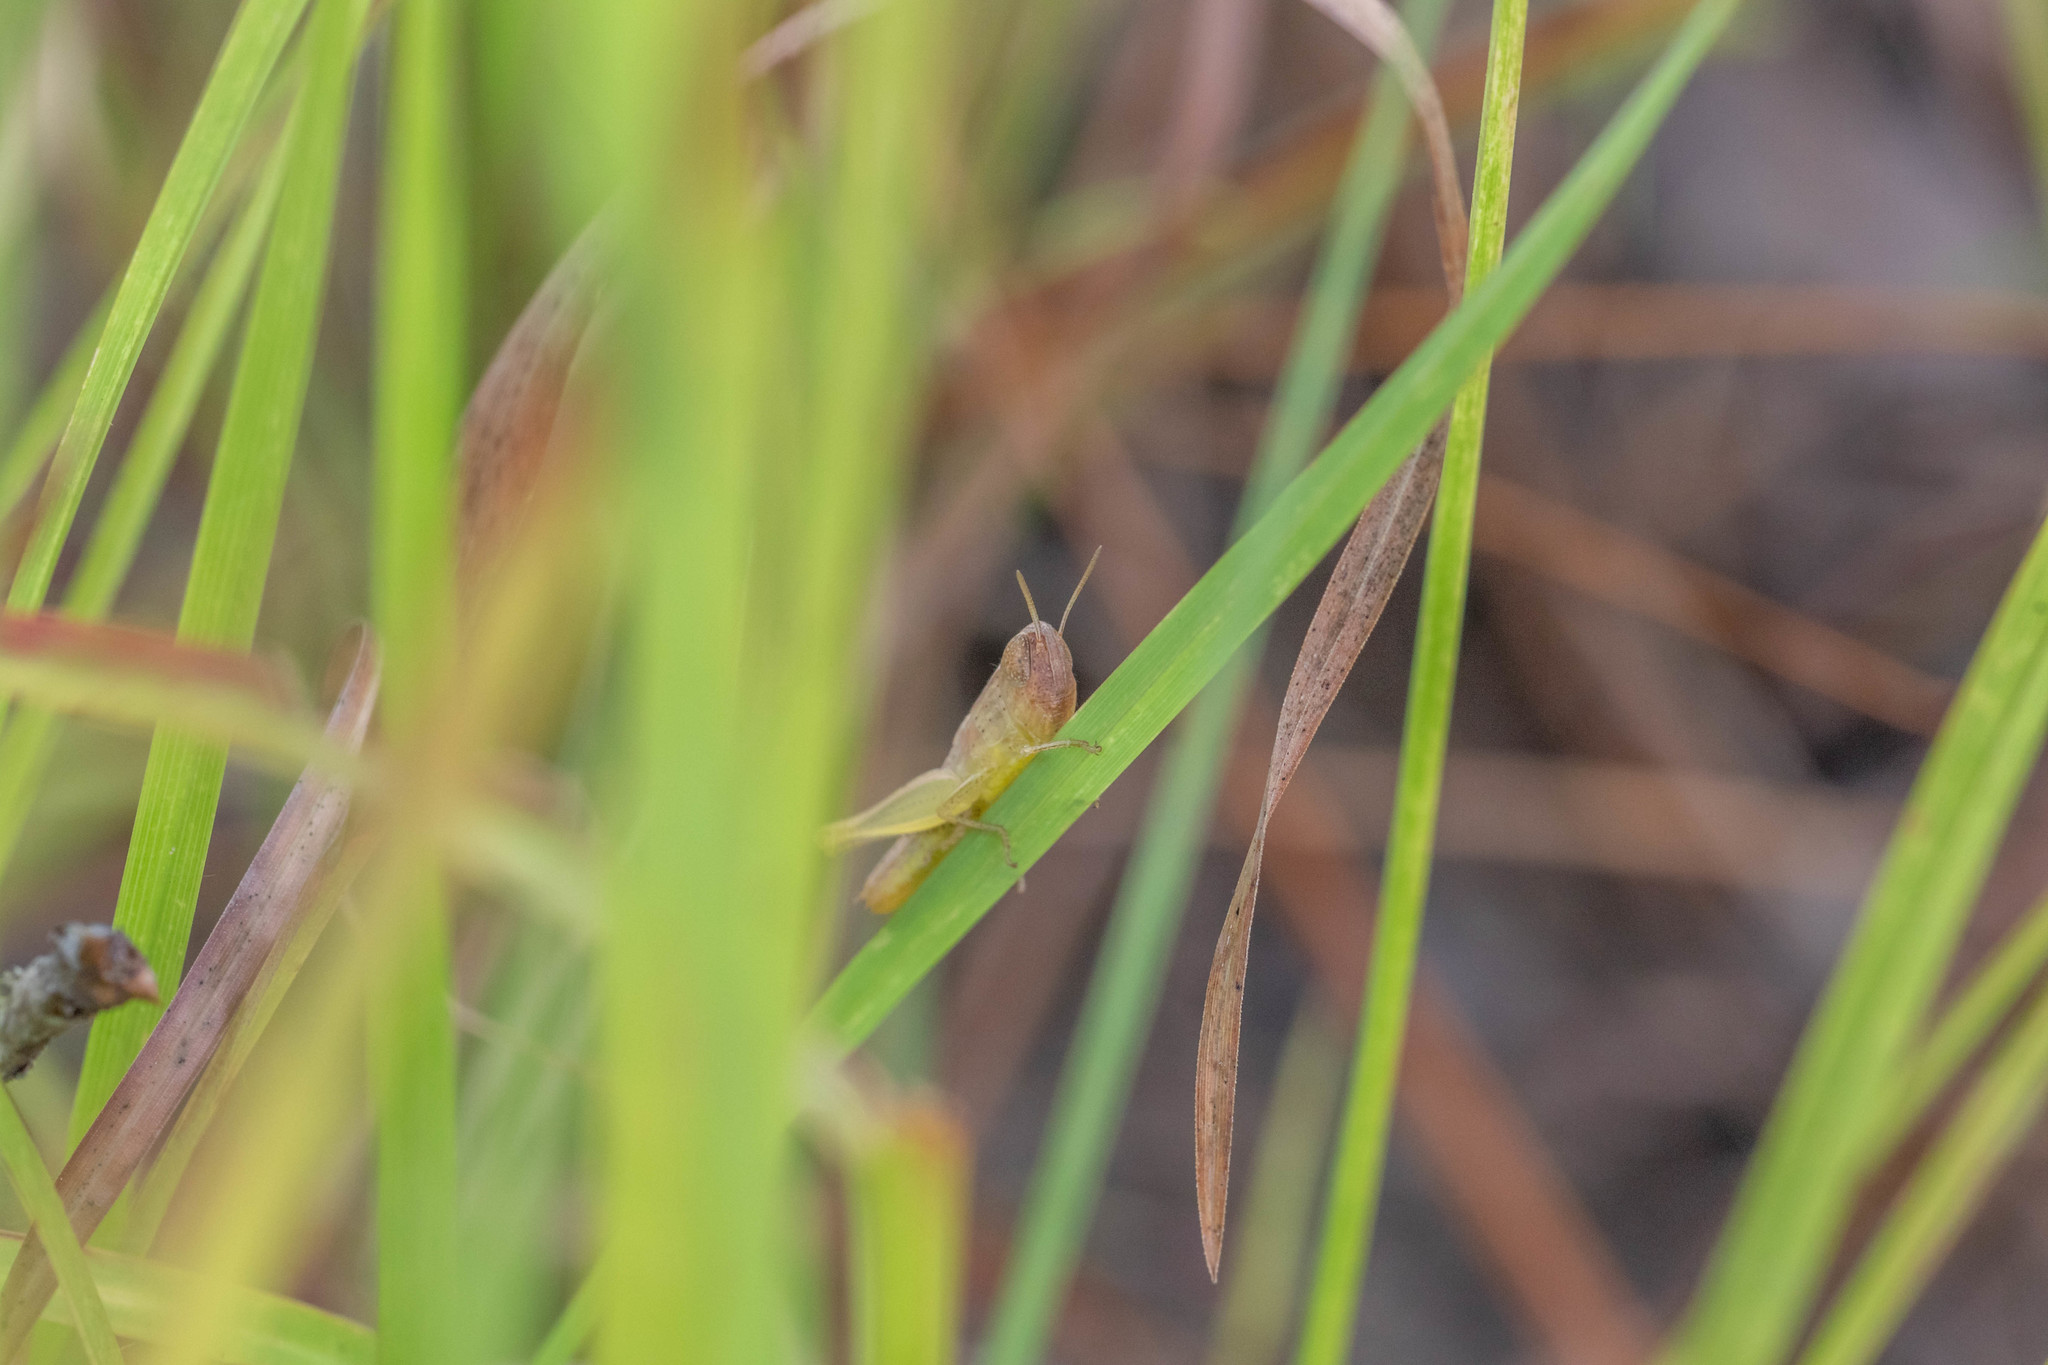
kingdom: Animalia
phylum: Arthropoda
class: Insecta
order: Orthoptera
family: Acrididae
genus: Amblytropidia
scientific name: Amblytropidia mysteca
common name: Brown winter grasshopper
